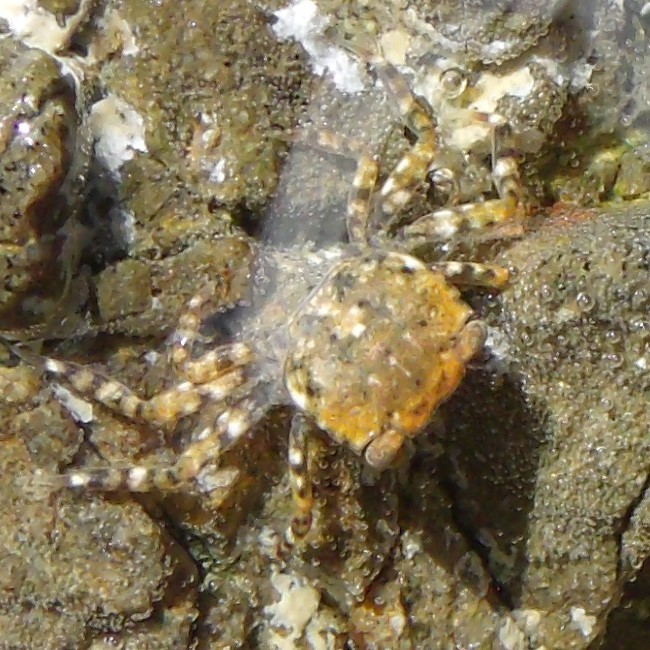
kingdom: Animalia
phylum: Arthropoda
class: Malacostraca
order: Decapoda
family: Varunidae
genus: Hemigrapsus
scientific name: Hemigrapsus sexdentatus
